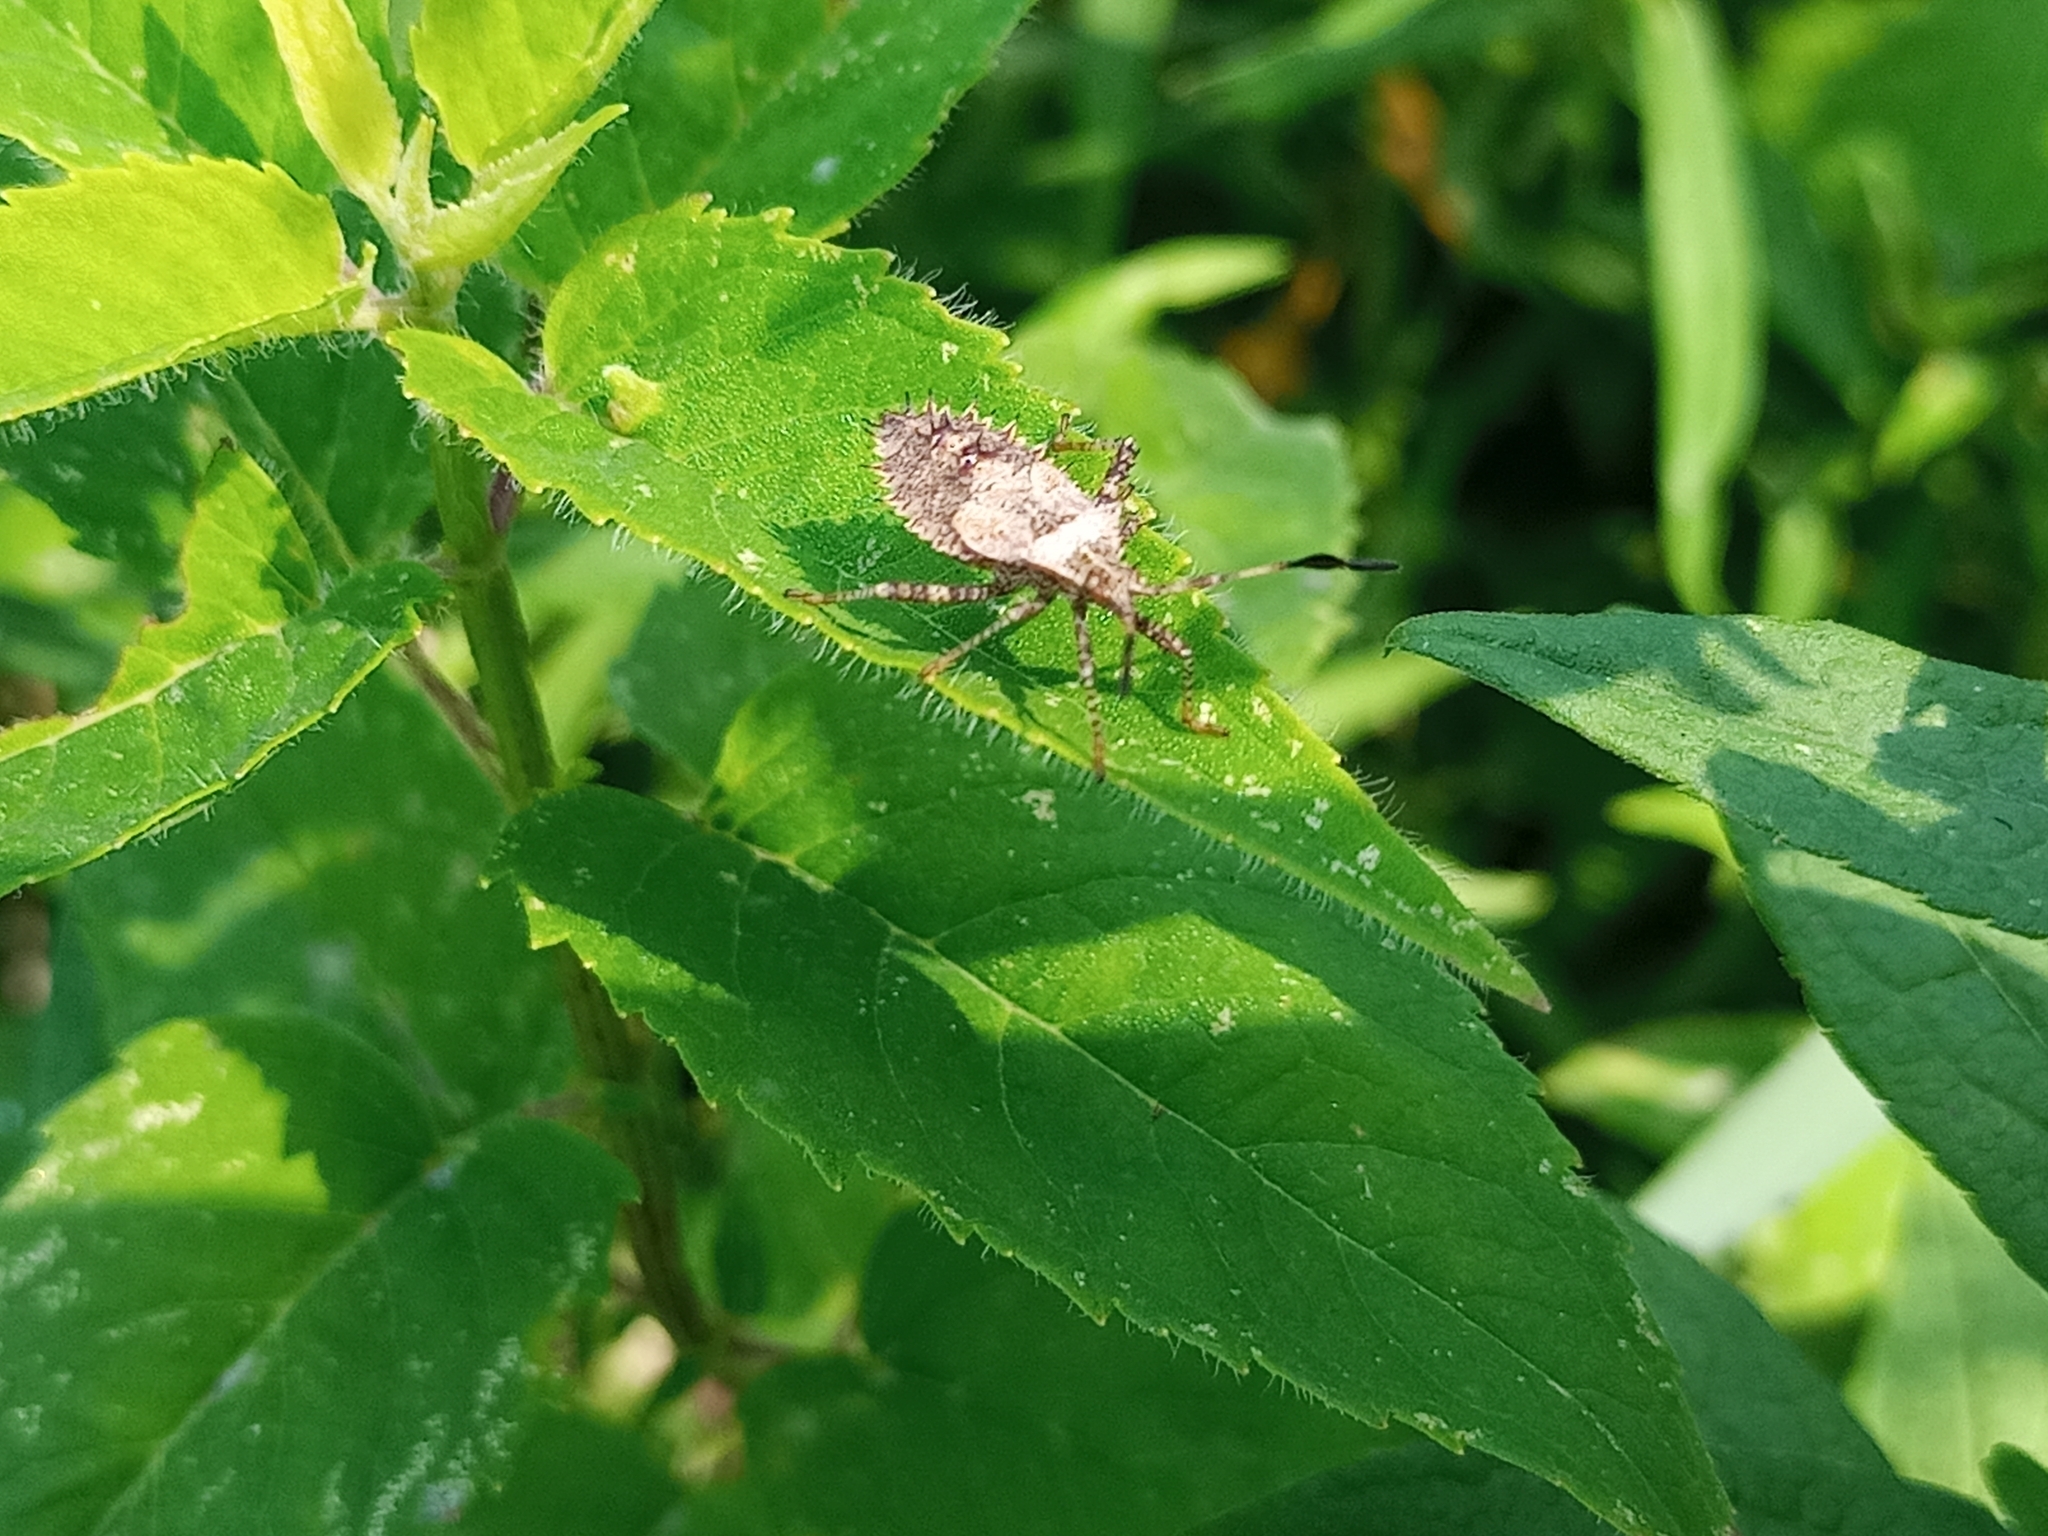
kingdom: Animalia
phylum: Arthropoda
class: Insecta
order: Hemiptera
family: Coreidae
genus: Euthochtha
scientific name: Euthochtha galeator
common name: Helmeted squash bug
